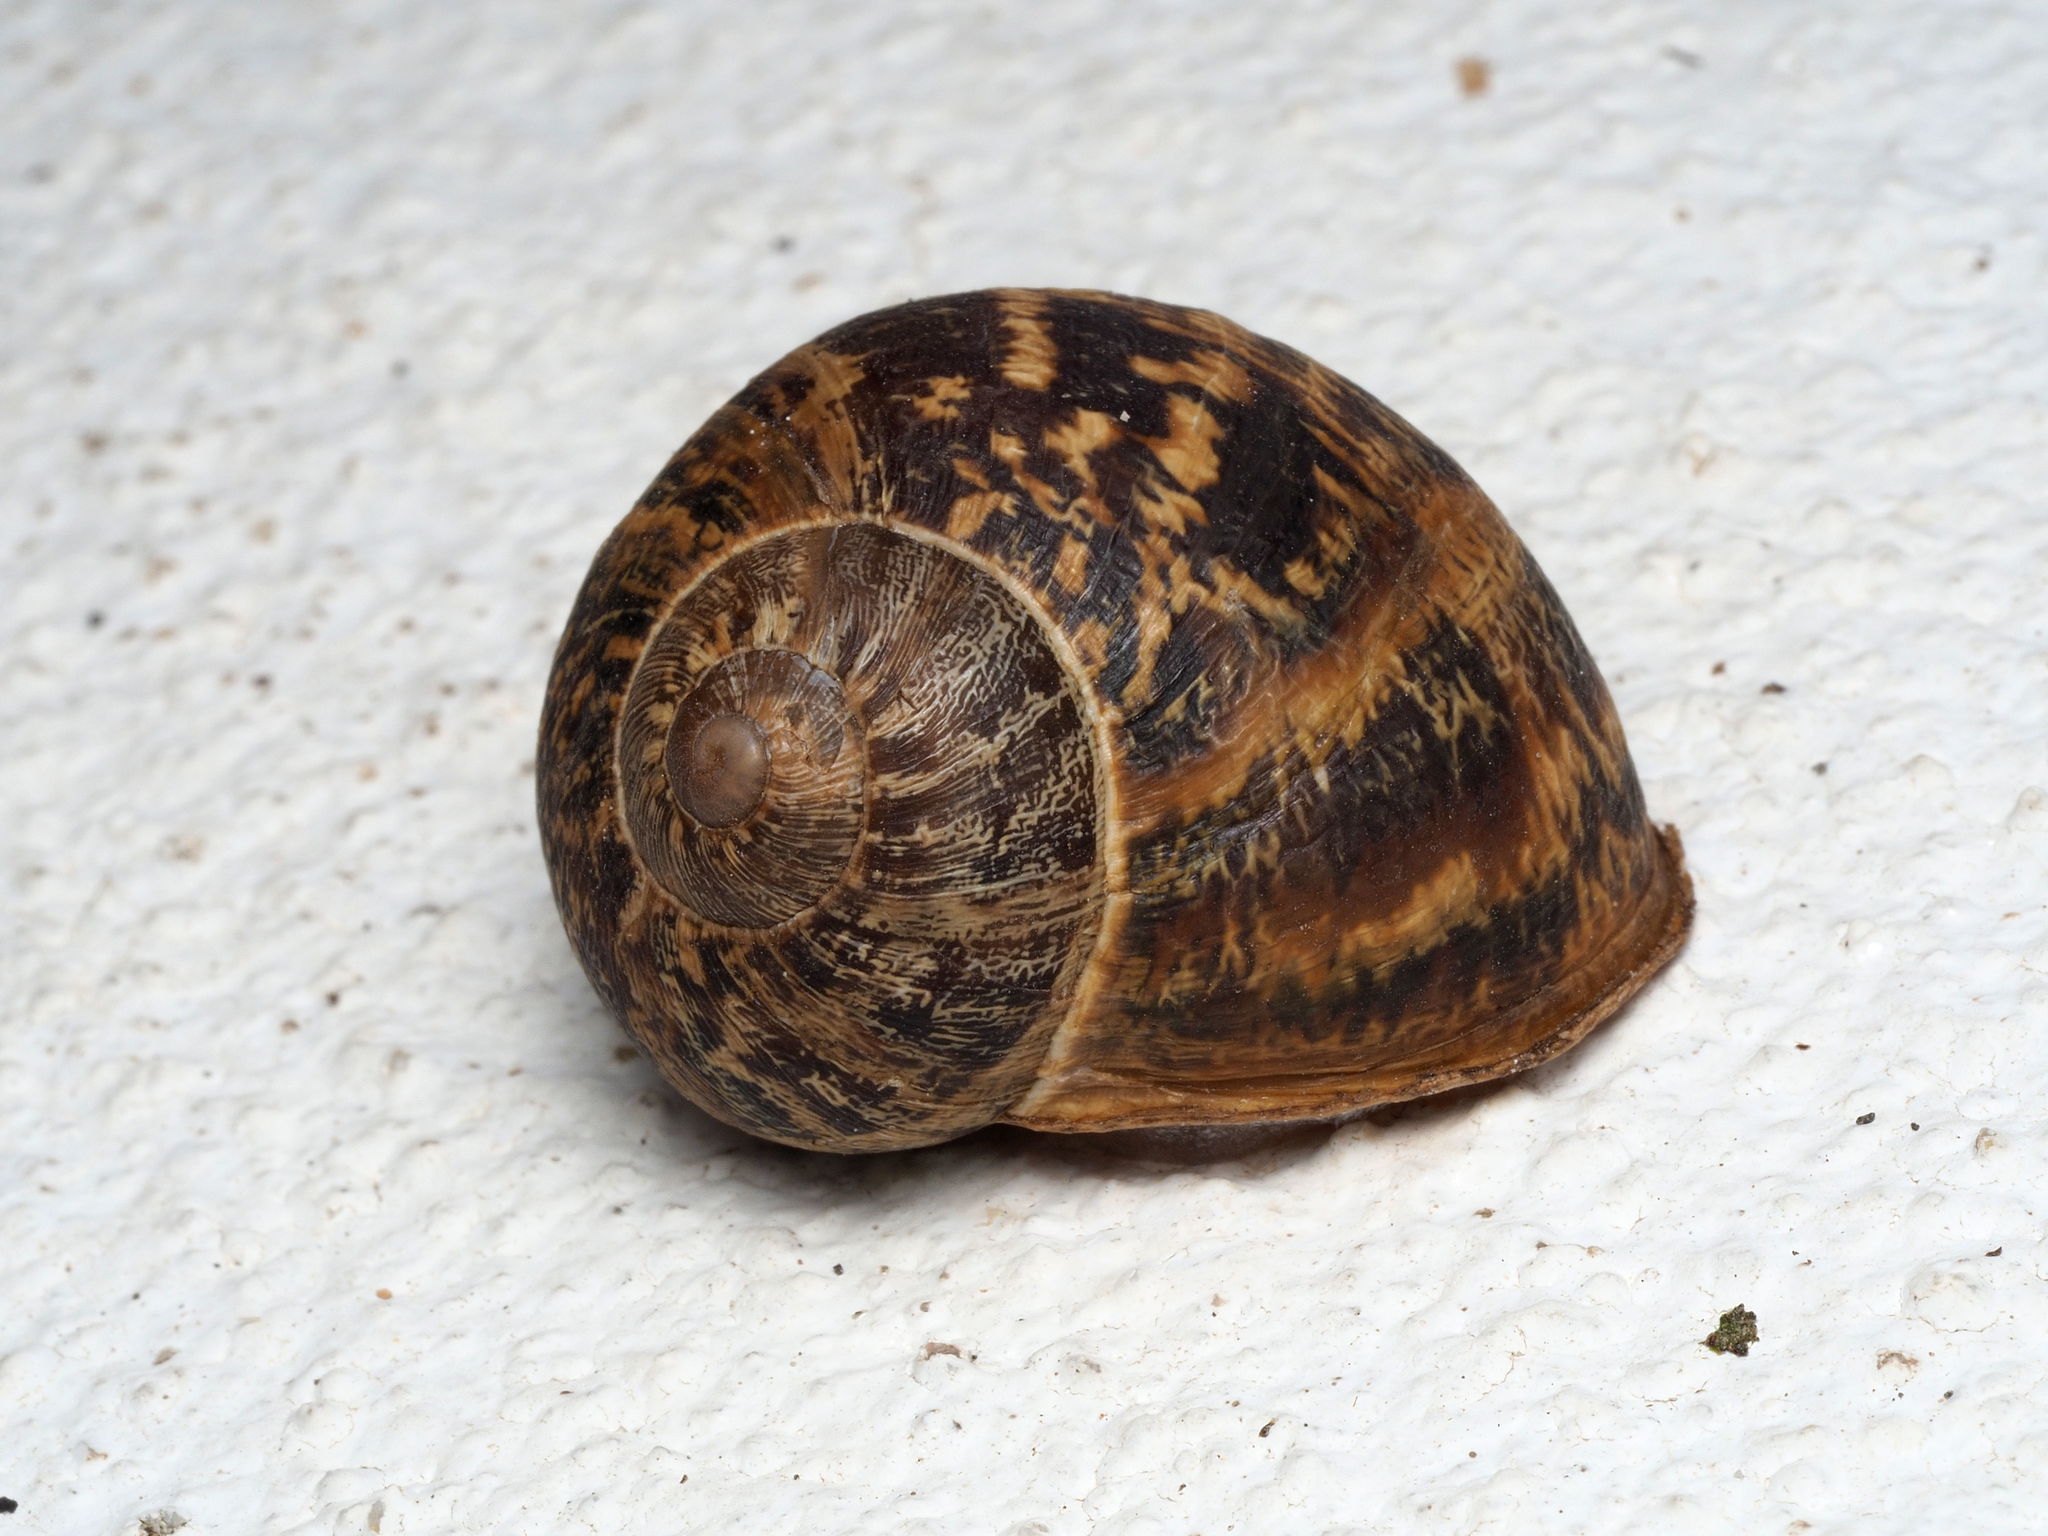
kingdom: Animalia
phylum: Mollusca
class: Gastropoda
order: Stylommatophora
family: Helicidae
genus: Cornu
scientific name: Cornu aspersum
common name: Brown garden snail
